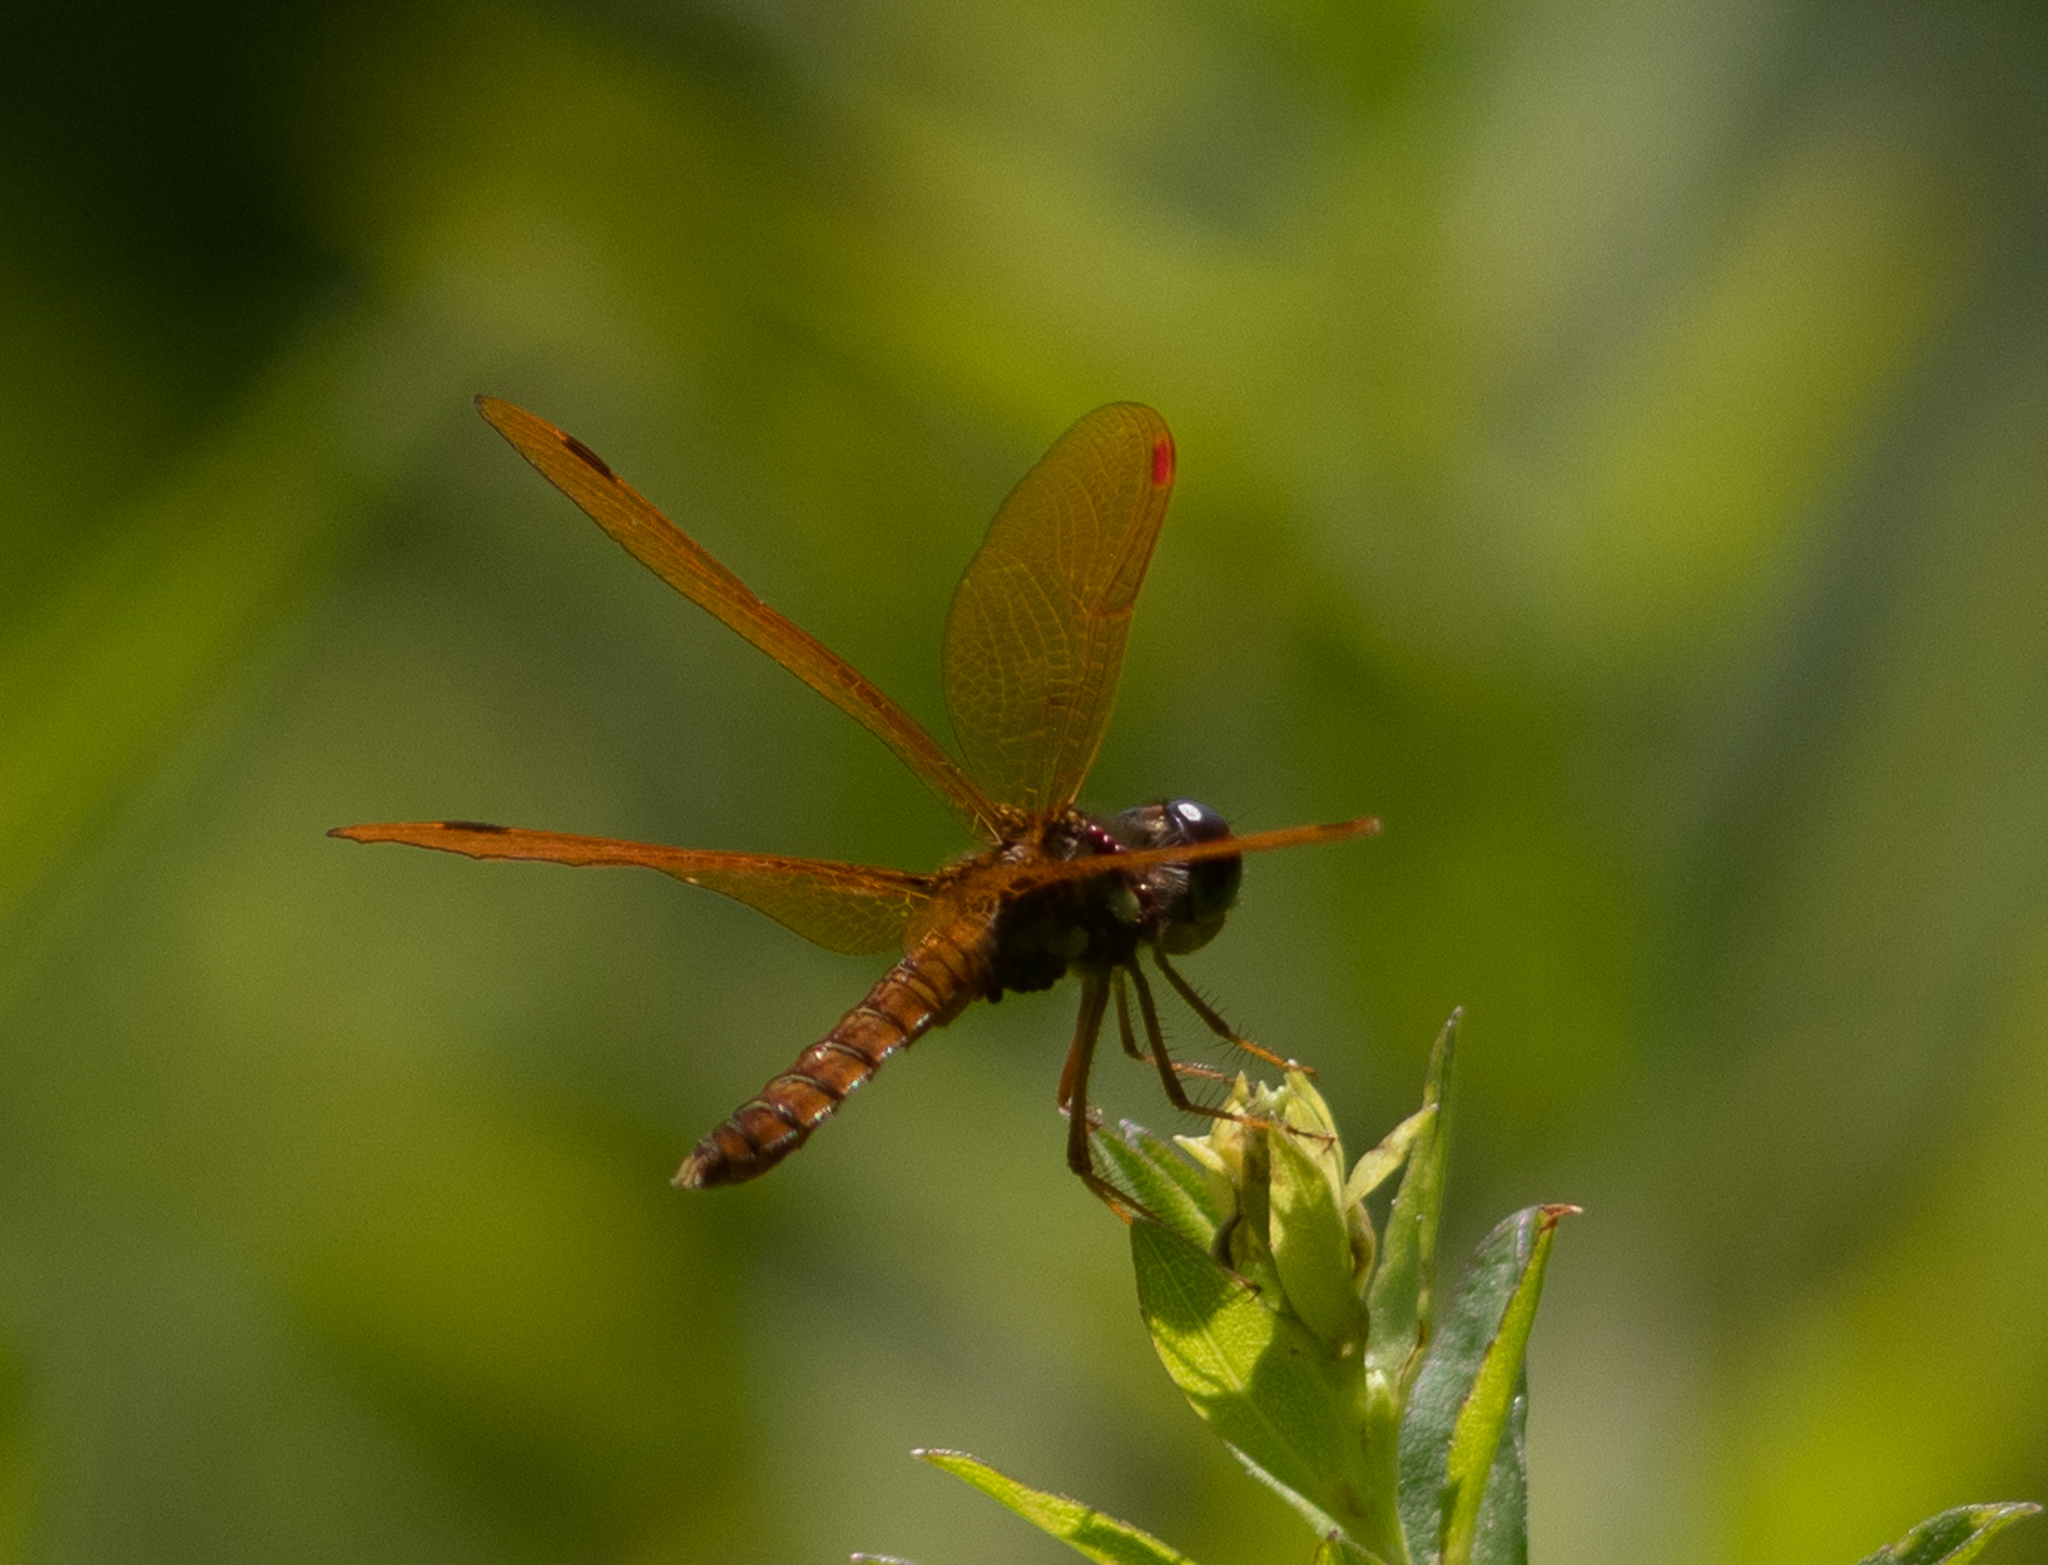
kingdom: Animalia
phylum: Arthropoda
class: Insecta
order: Odonata
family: Libellulidae
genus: Perithemis
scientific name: Perithemis tenera
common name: Eastern amberwing
